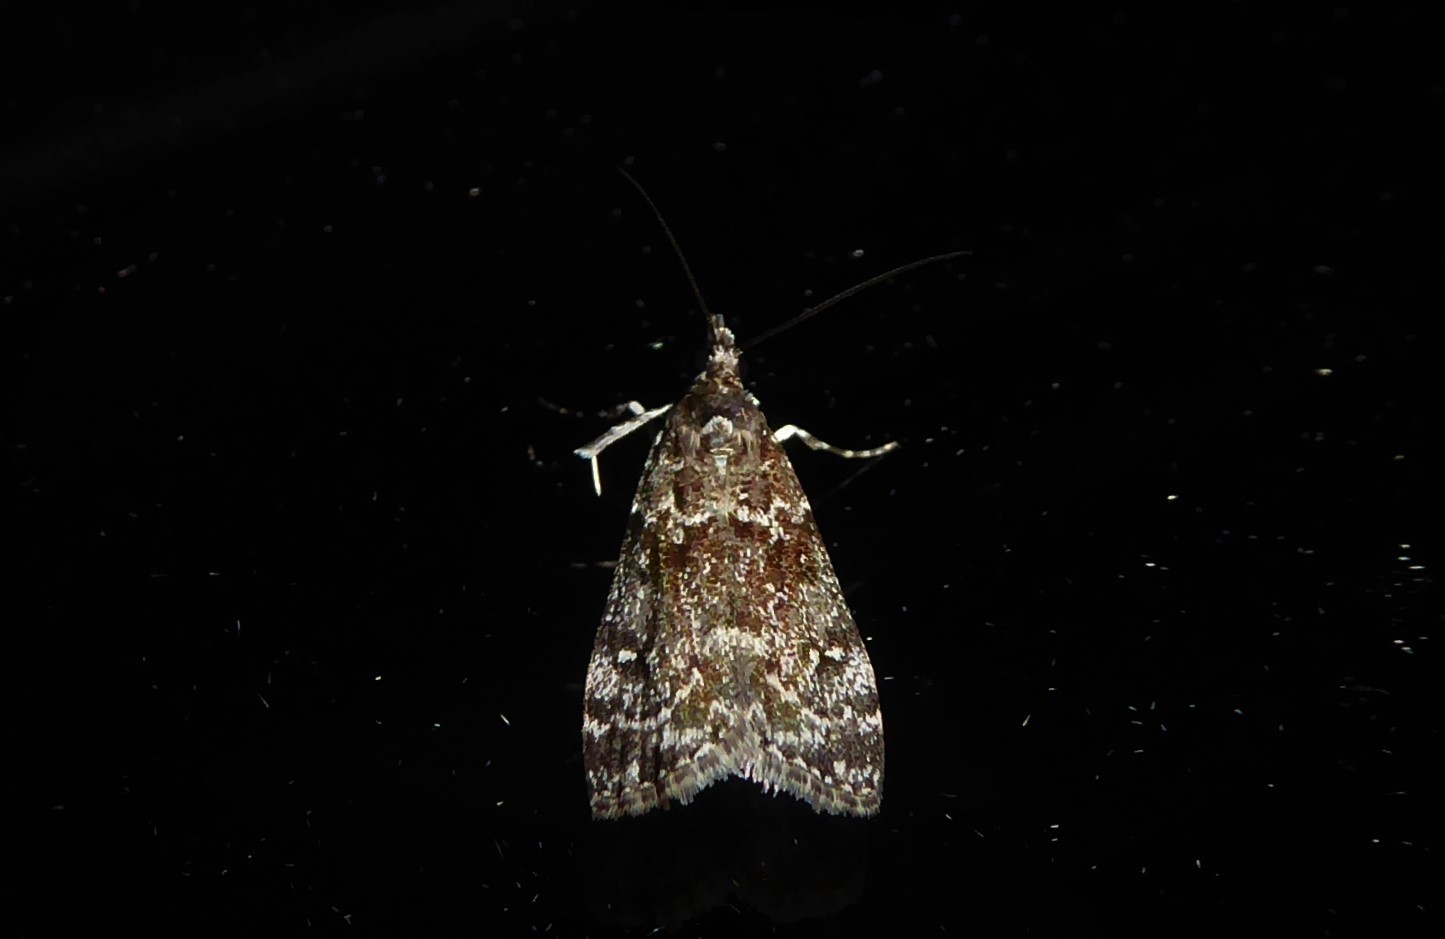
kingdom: Animalia
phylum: Arthropoda
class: Insecta
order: Lepidoptera
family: Crambidae
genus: Eudonia
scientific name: Eudonia philerga
